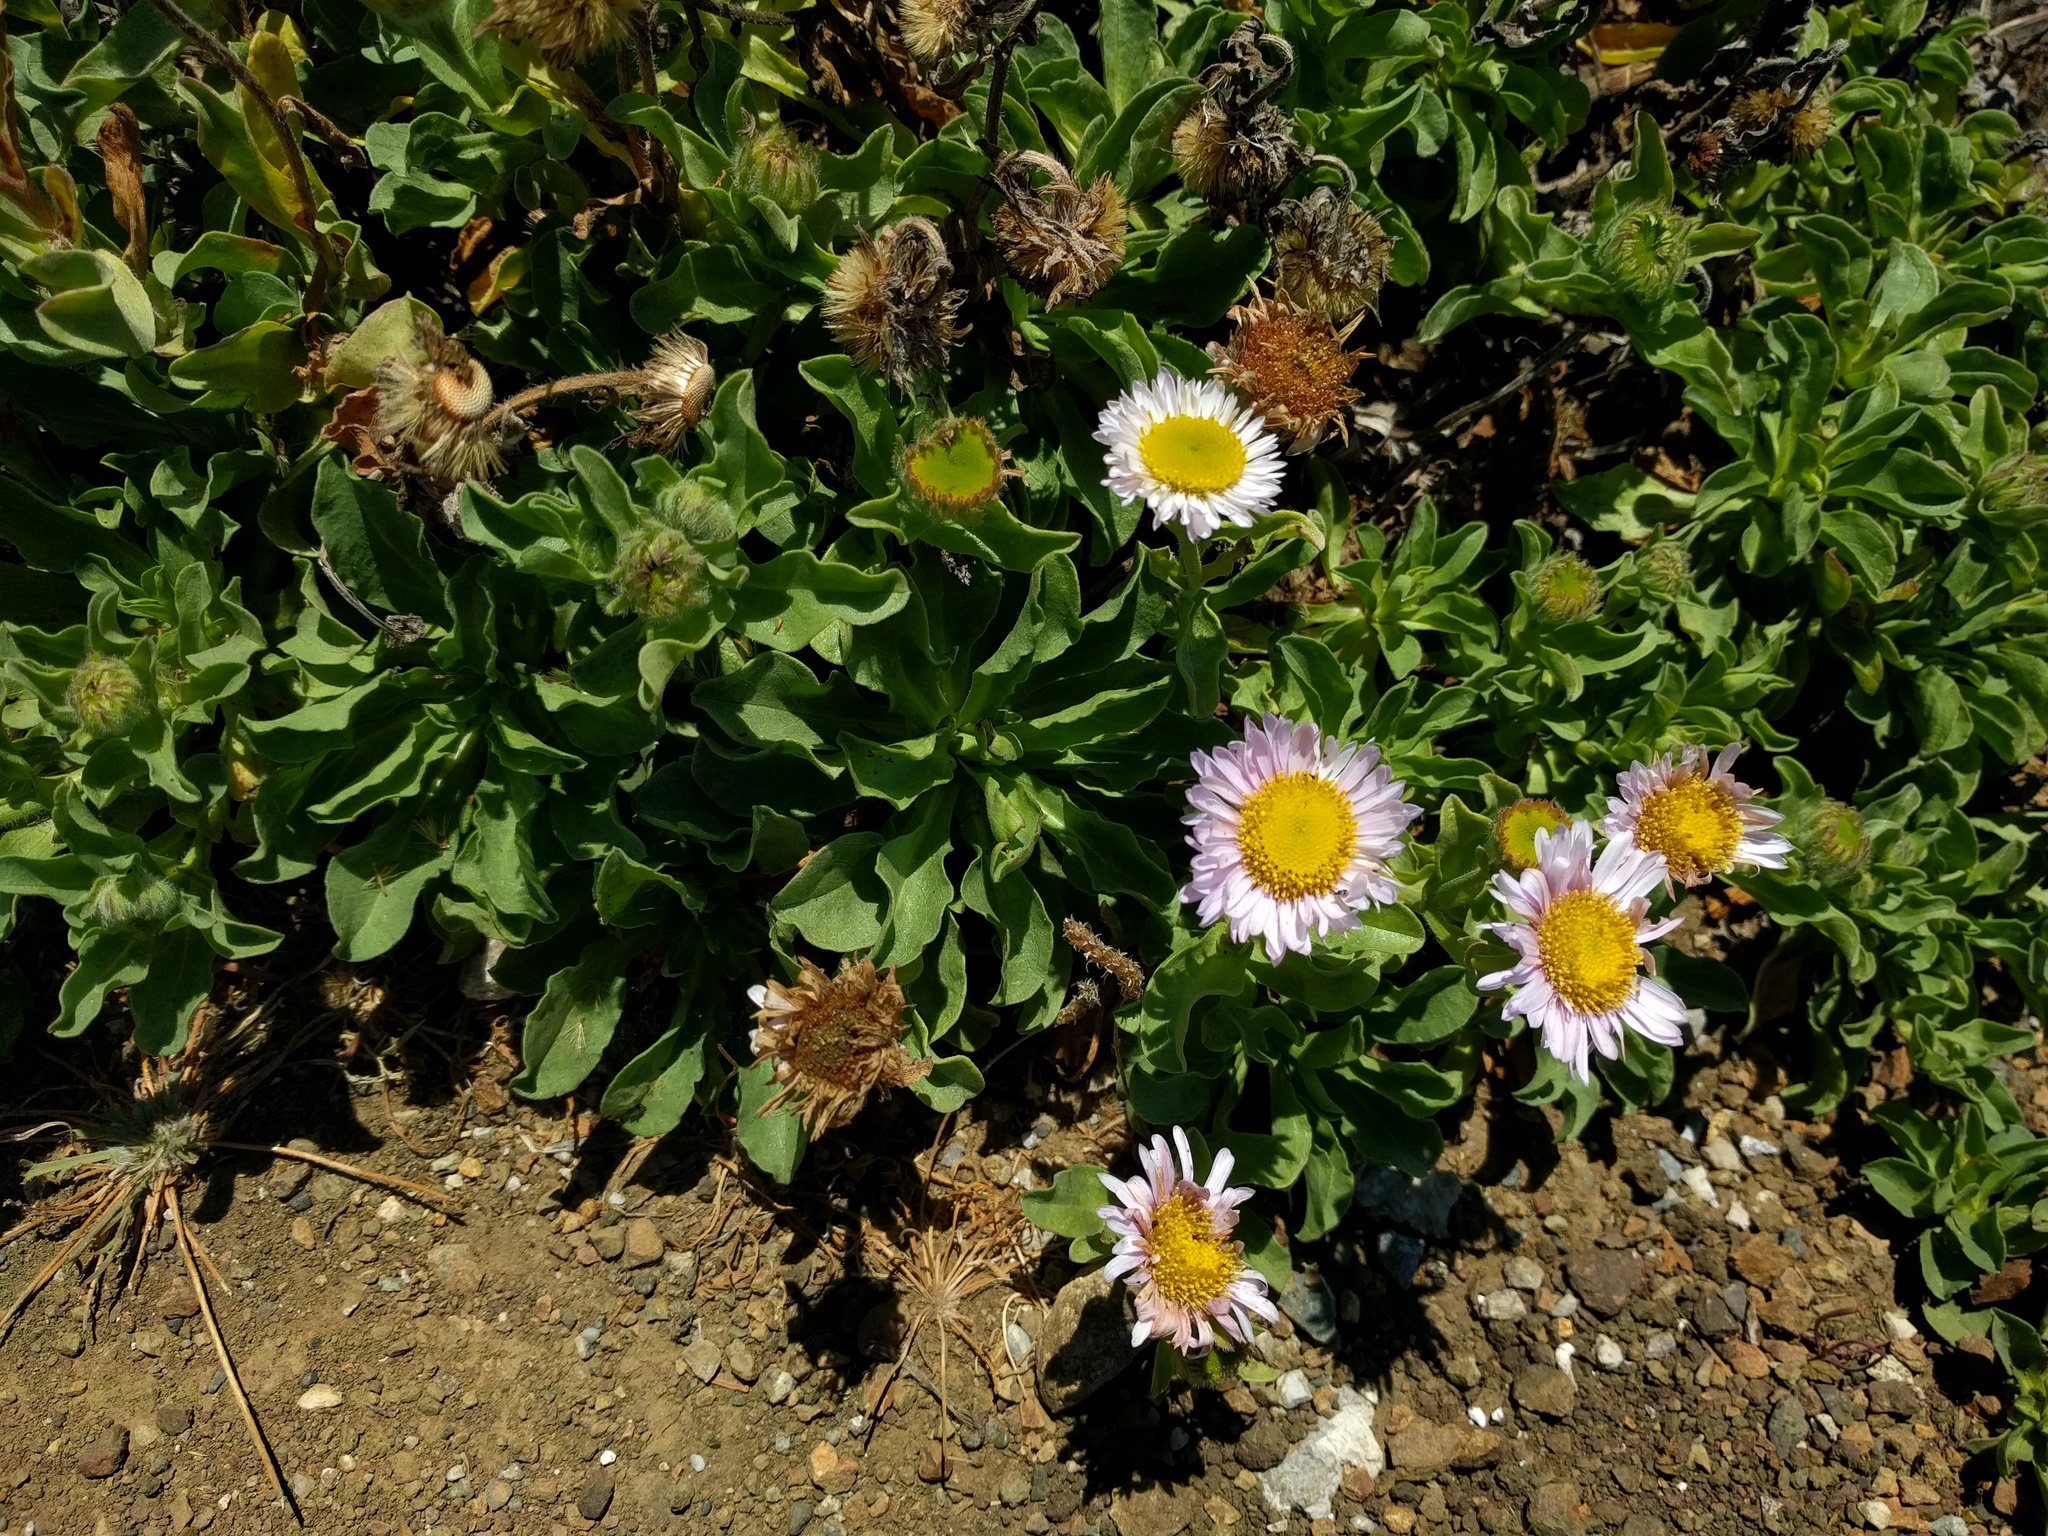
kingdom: Plantae
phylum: Tracheophyta
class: Magnoliopsida
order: Asterales
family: Asteraceae
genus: Erigeron
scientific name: Erigeron glaucus
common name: Seaside daisy
